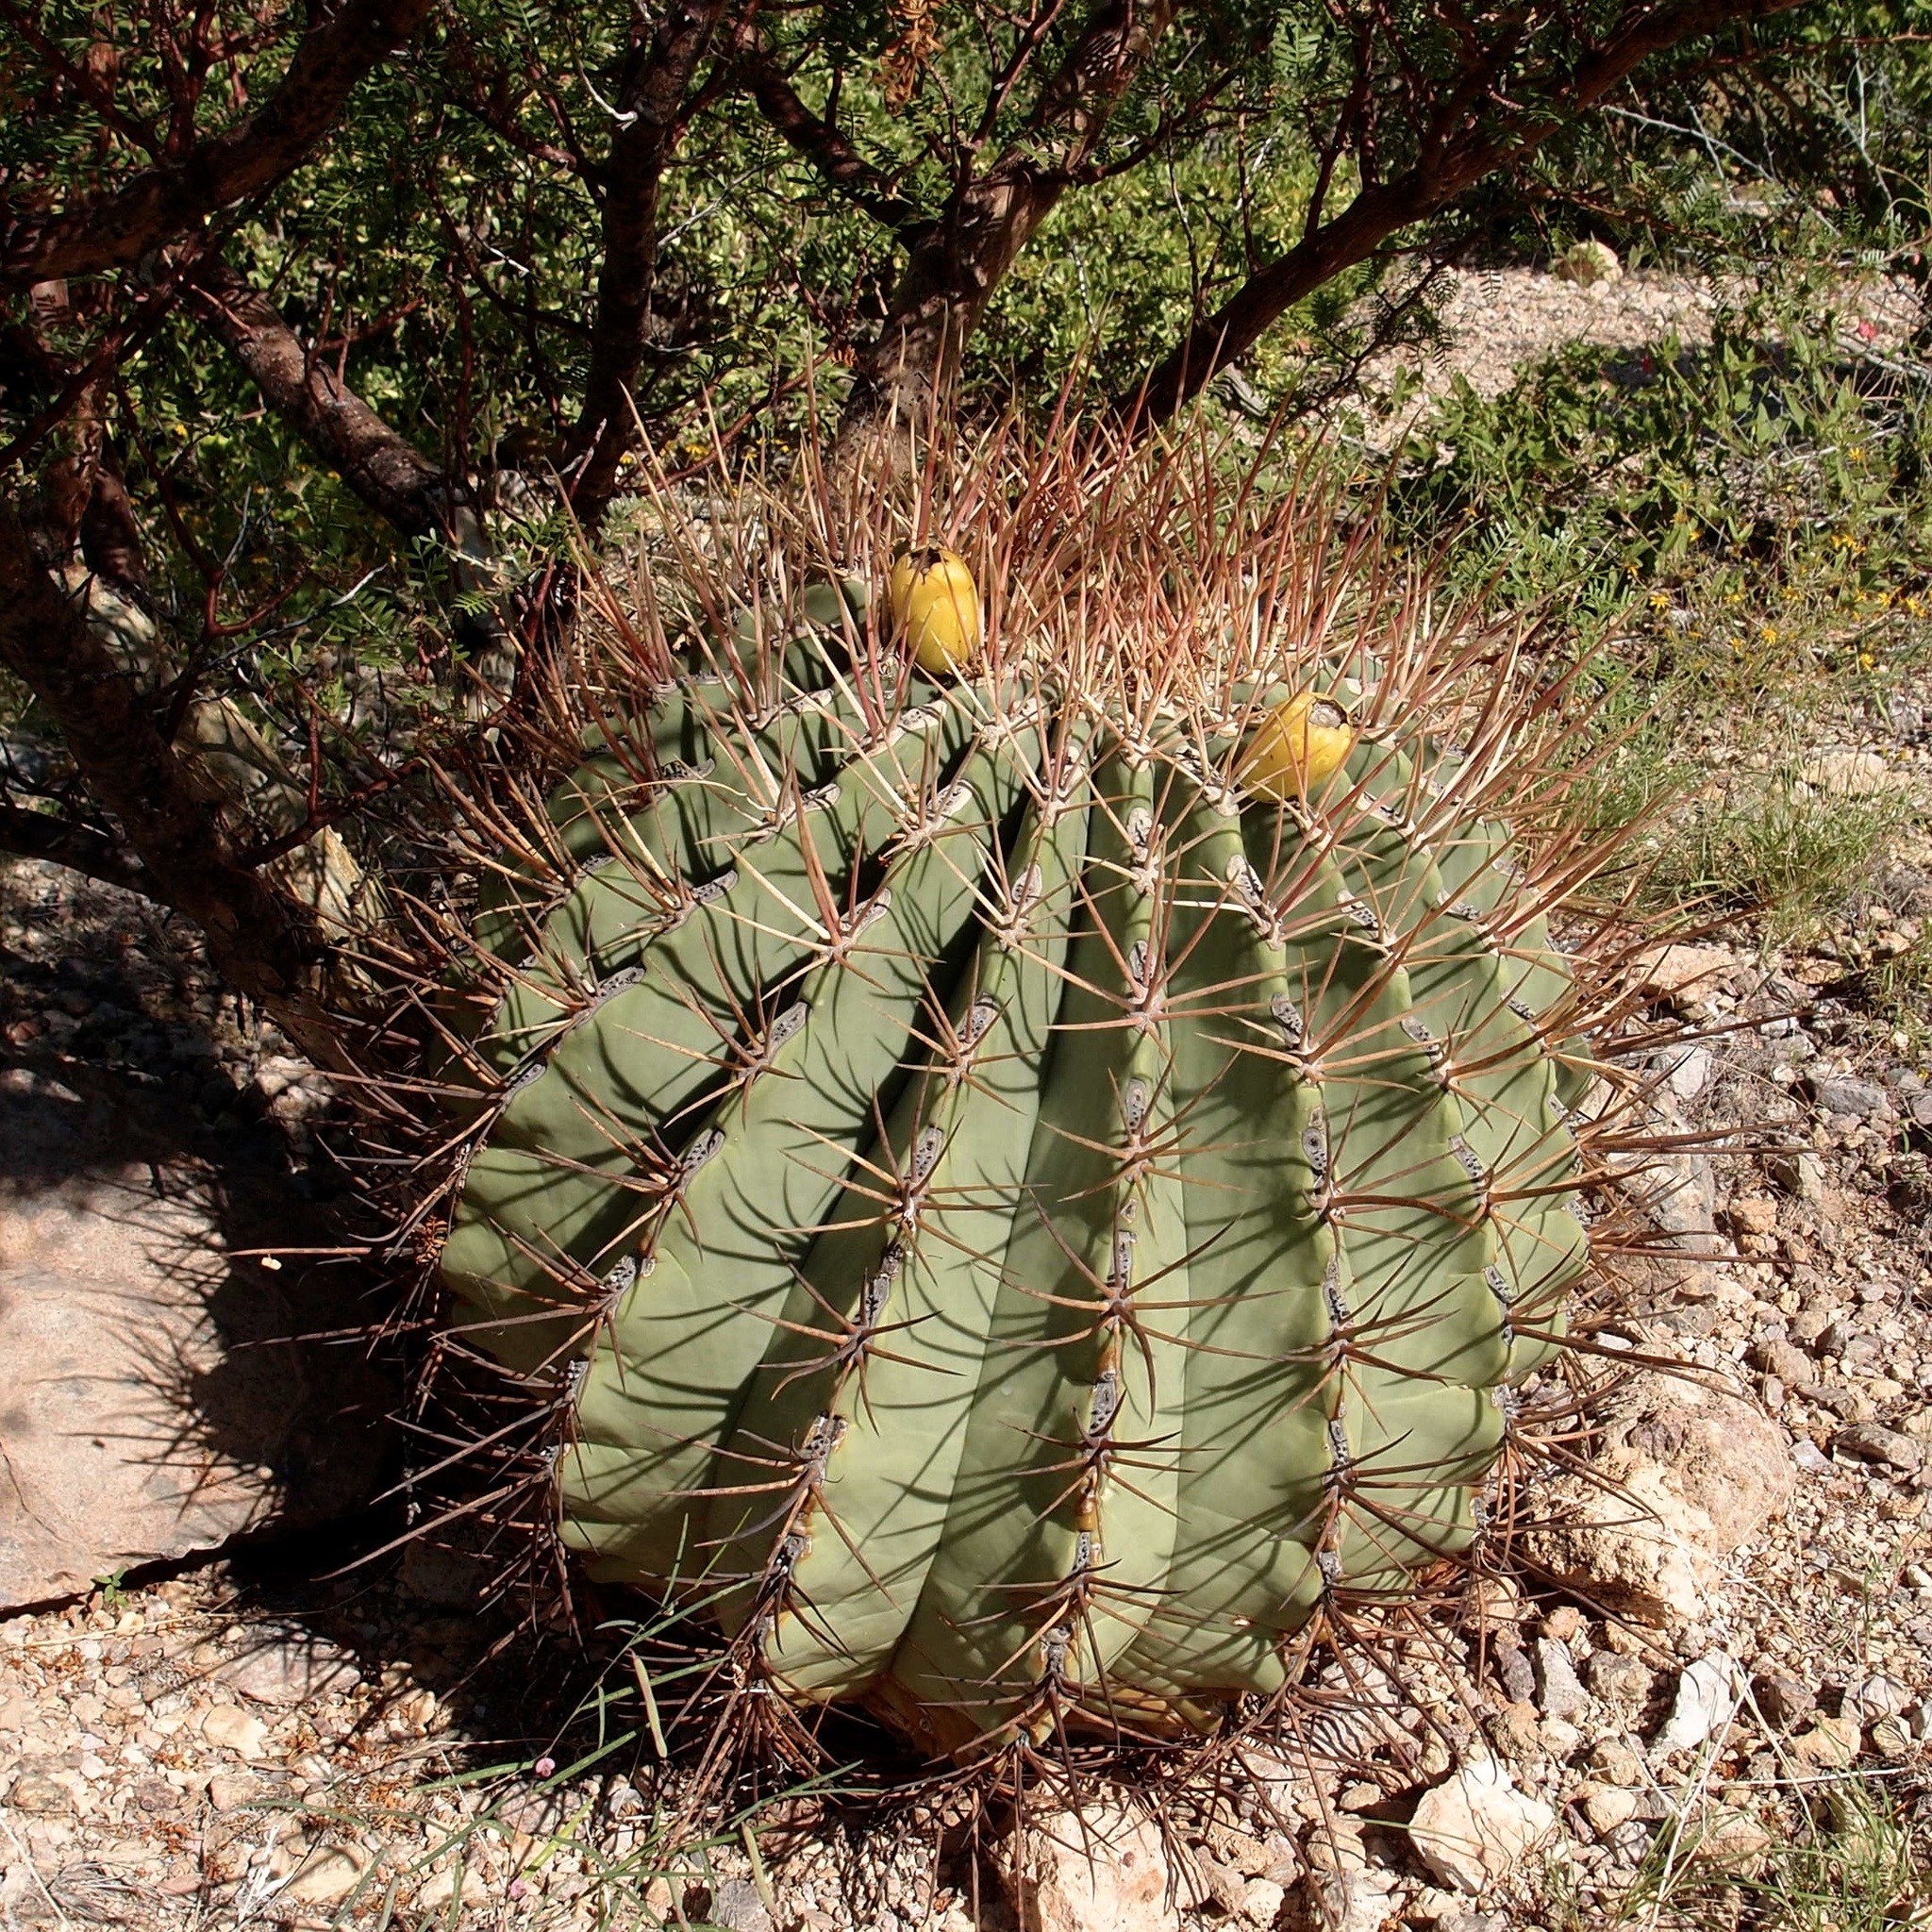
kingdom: Plantae
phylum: Tracheophyta
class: Magnoliopsida
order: Caryophyllales
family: Cactaceae
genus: Ferocactus
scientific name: Ferocactus emoryi
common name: Emory's barrel cactus
